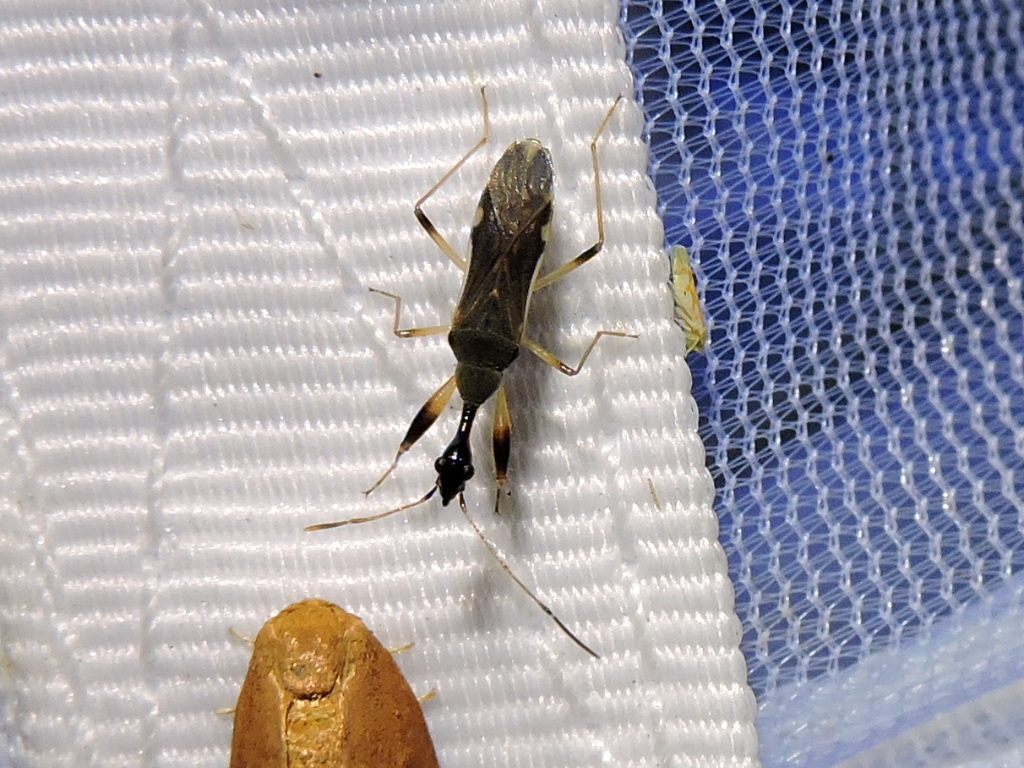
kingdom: Animalia
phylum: Arthropoda
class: Insecta
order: Hemiptera
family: Rhyparochromidae
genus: Myodocha
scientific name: Myodocha serripes
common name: Long-necked seed bug
